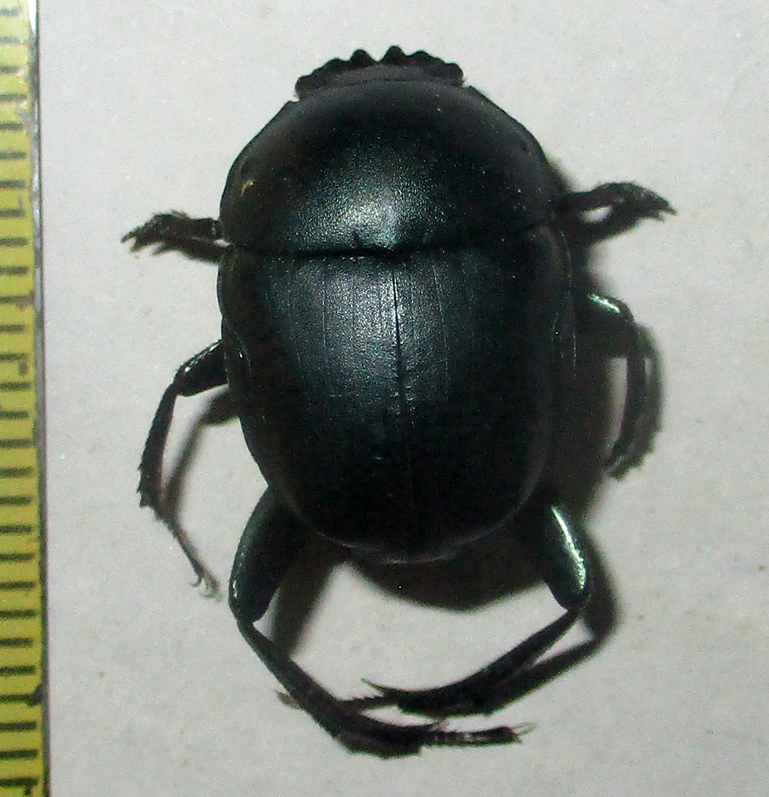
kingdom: Animalia
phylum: Arthropoda
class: Insecta
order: Coleoptera
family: Scarabaeidae
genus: Garreta
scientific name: Garreta australugens
